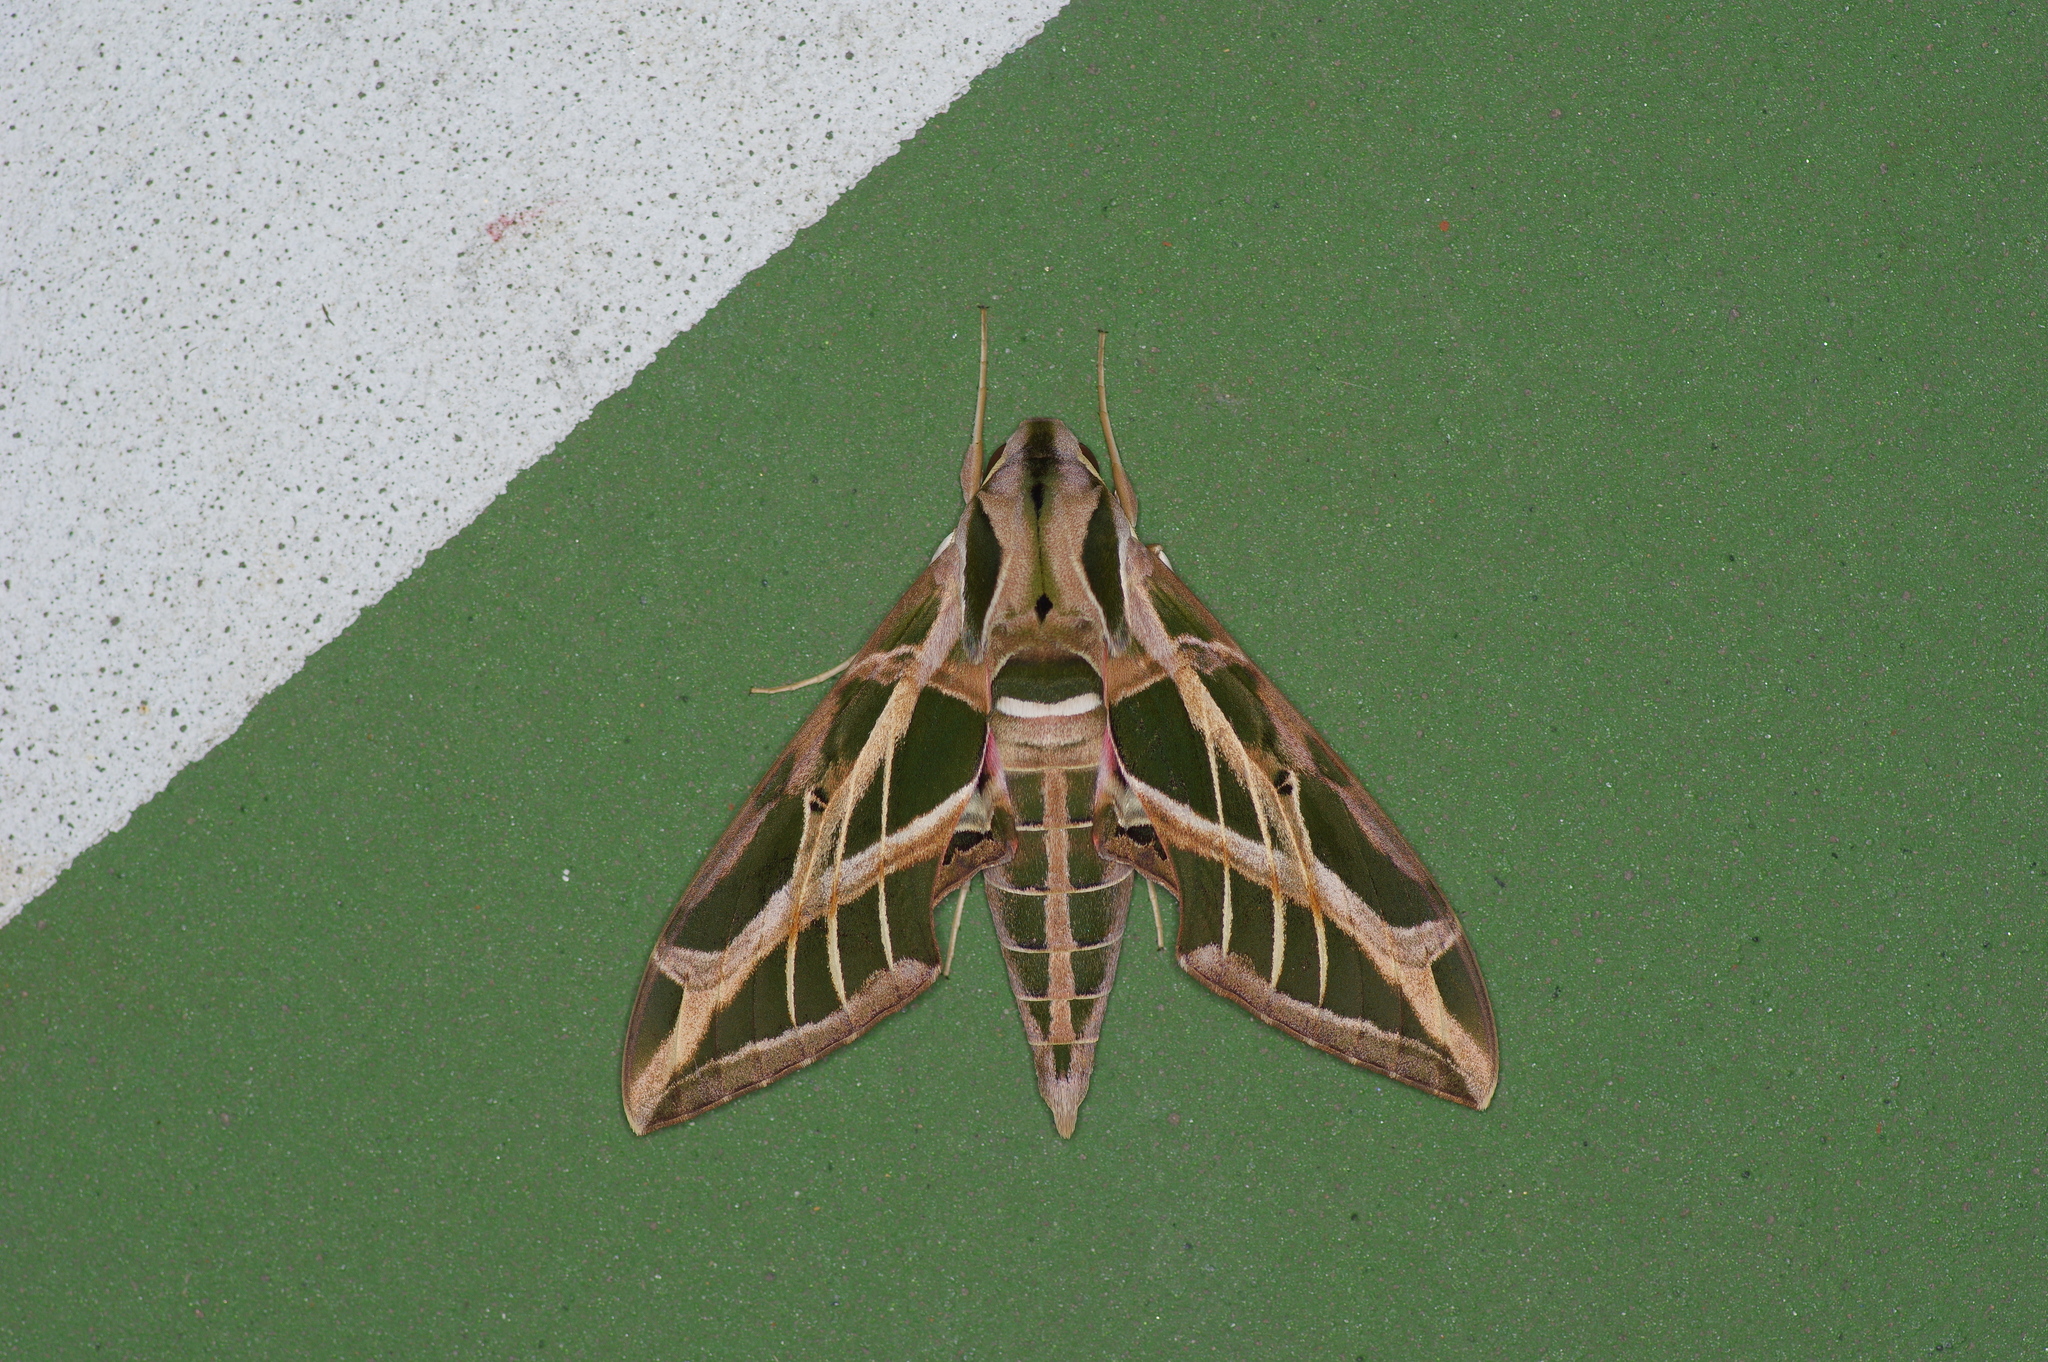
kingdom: Animalia
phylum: Arthropoda
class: Insecta
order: Lepidoptera
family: Sphingidae
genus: Eumorpha
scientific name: Eumorpha vitis
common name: Vine sphinx
